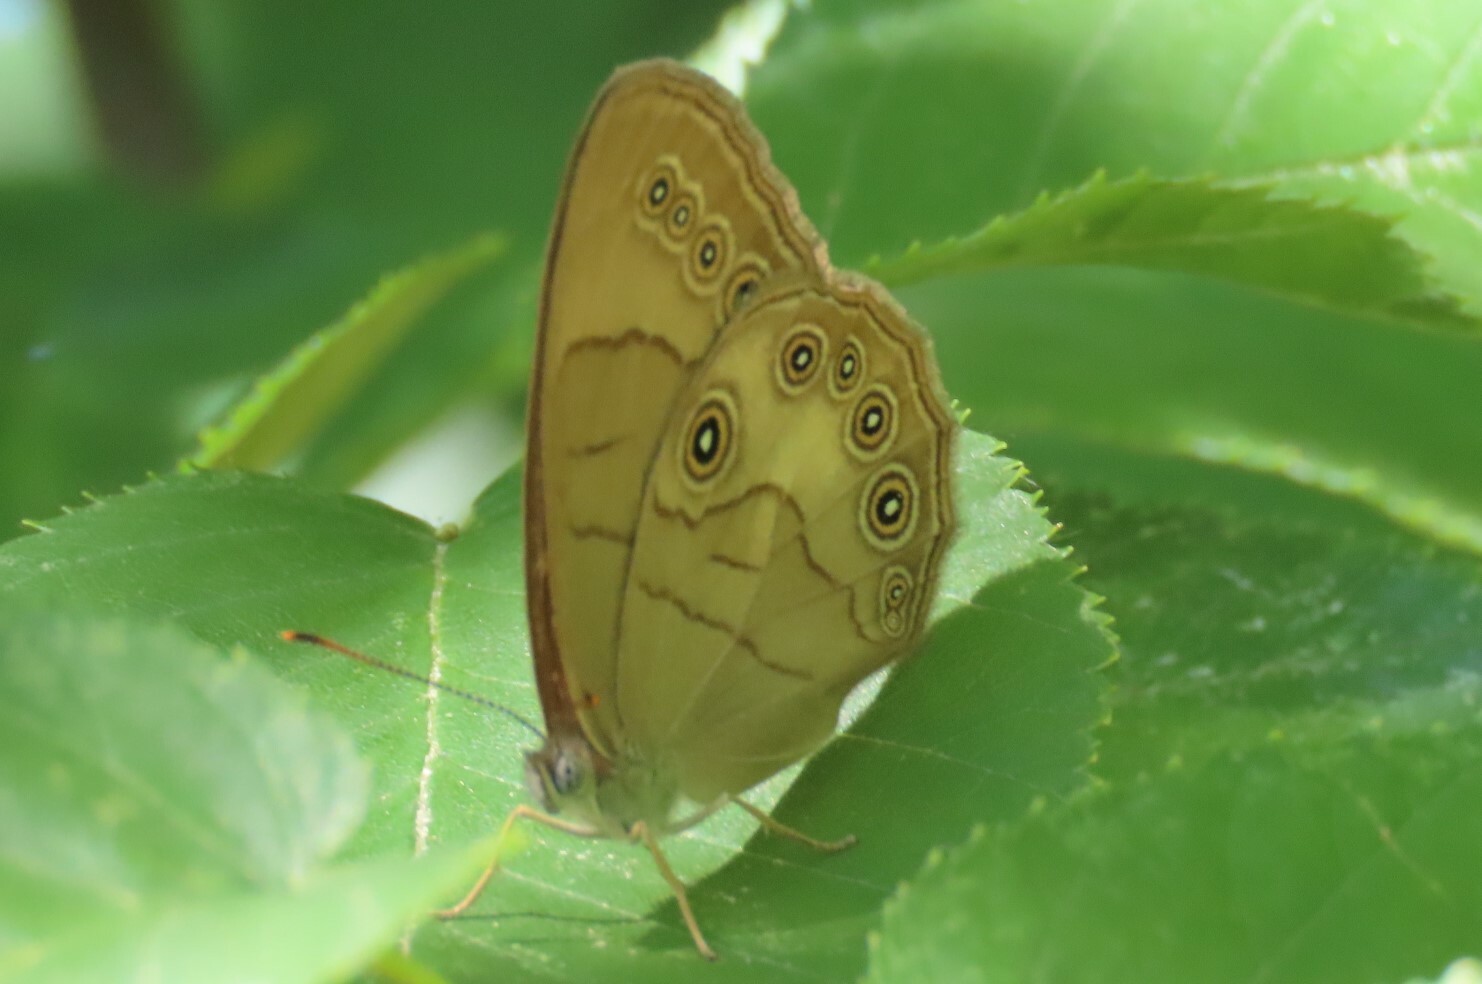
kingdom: Animalia
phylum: Arthropoda
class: Insecta
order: Lepidoptera
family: Nymphalidae
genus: Lethe
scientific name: Lethe eurydice
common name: Eyed brown
